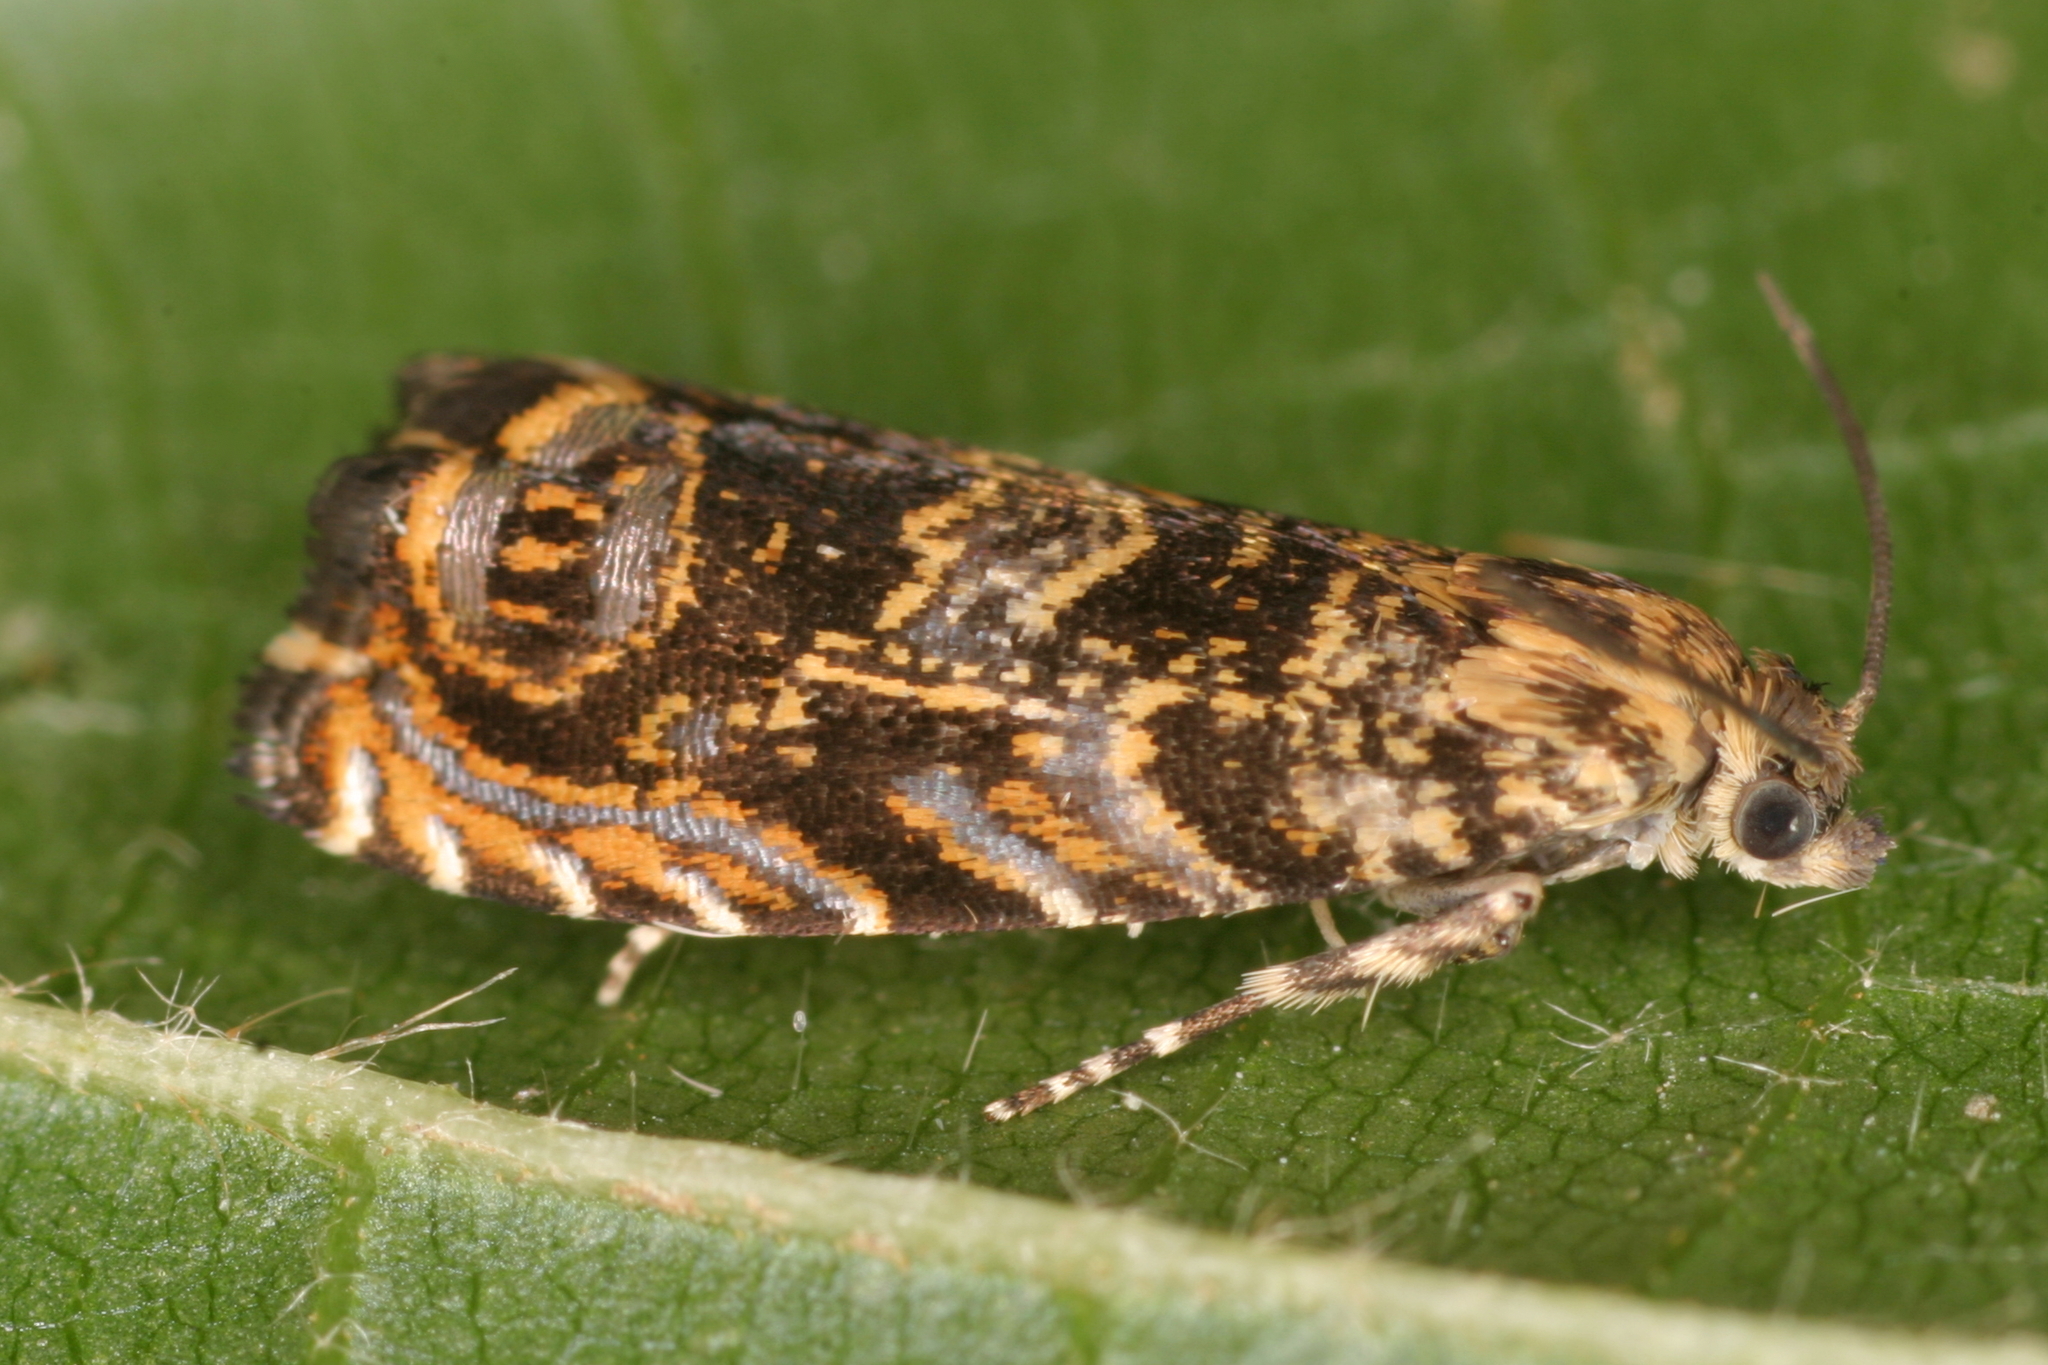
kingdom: Animalia
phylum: Arthropoda
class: Insecta
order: Lepidoptera
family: Tortricidae
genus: Enarmonia
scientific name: Enarmonia formosana
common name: Cherry bark tortrix
